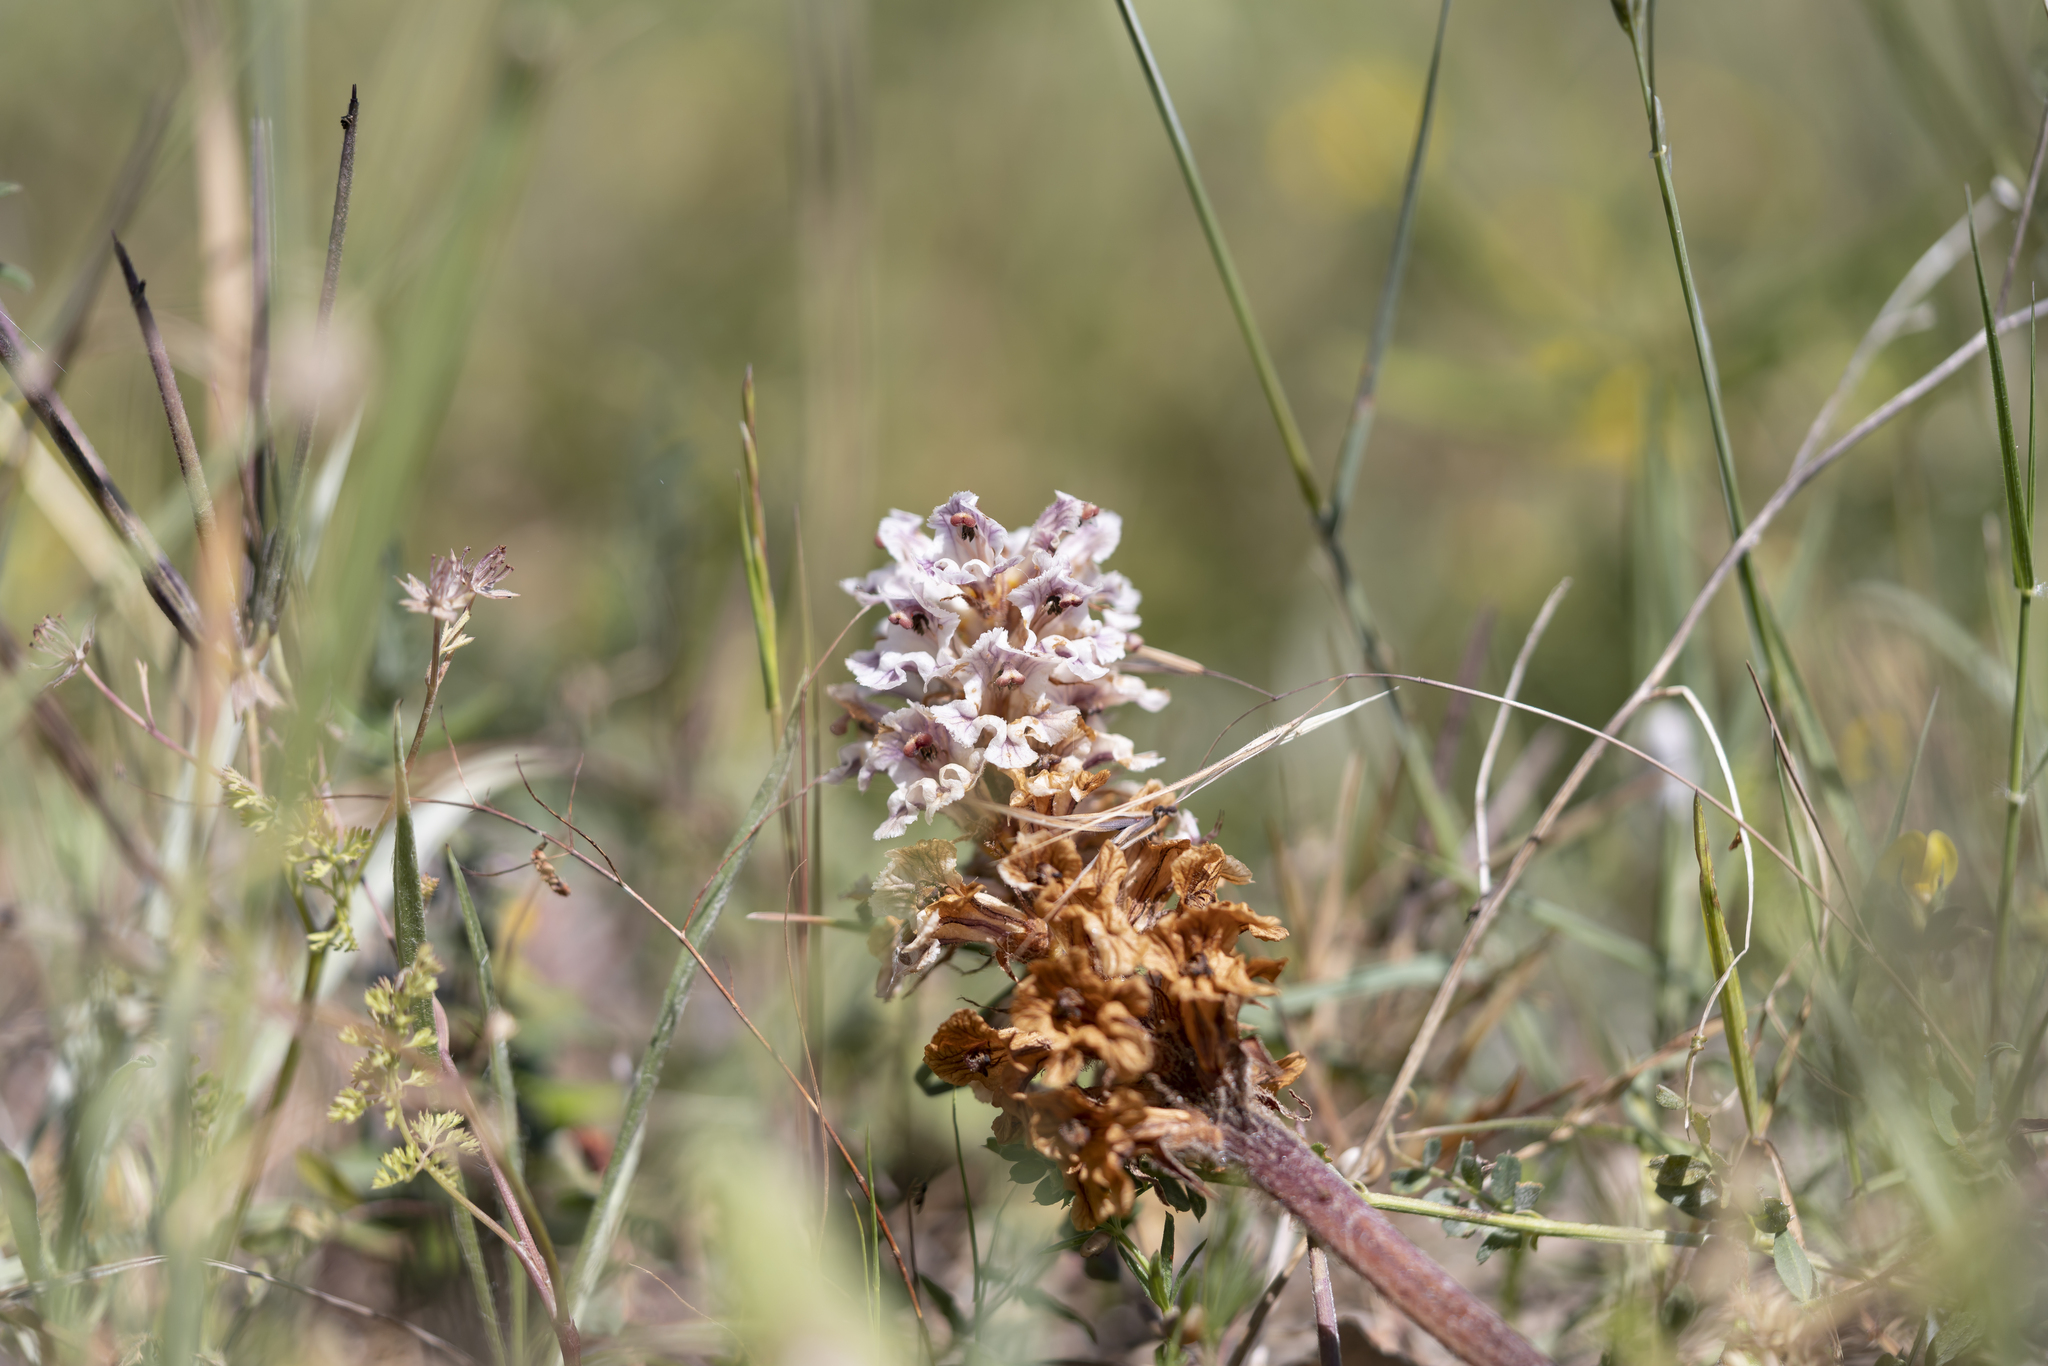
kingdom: Plantae
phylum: Tracheophyta
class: Magnoliopsida
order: Lamiales
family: Orobanchaceae
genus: Orobanche
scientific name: Orobanche crenata
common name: Bean broomrape
